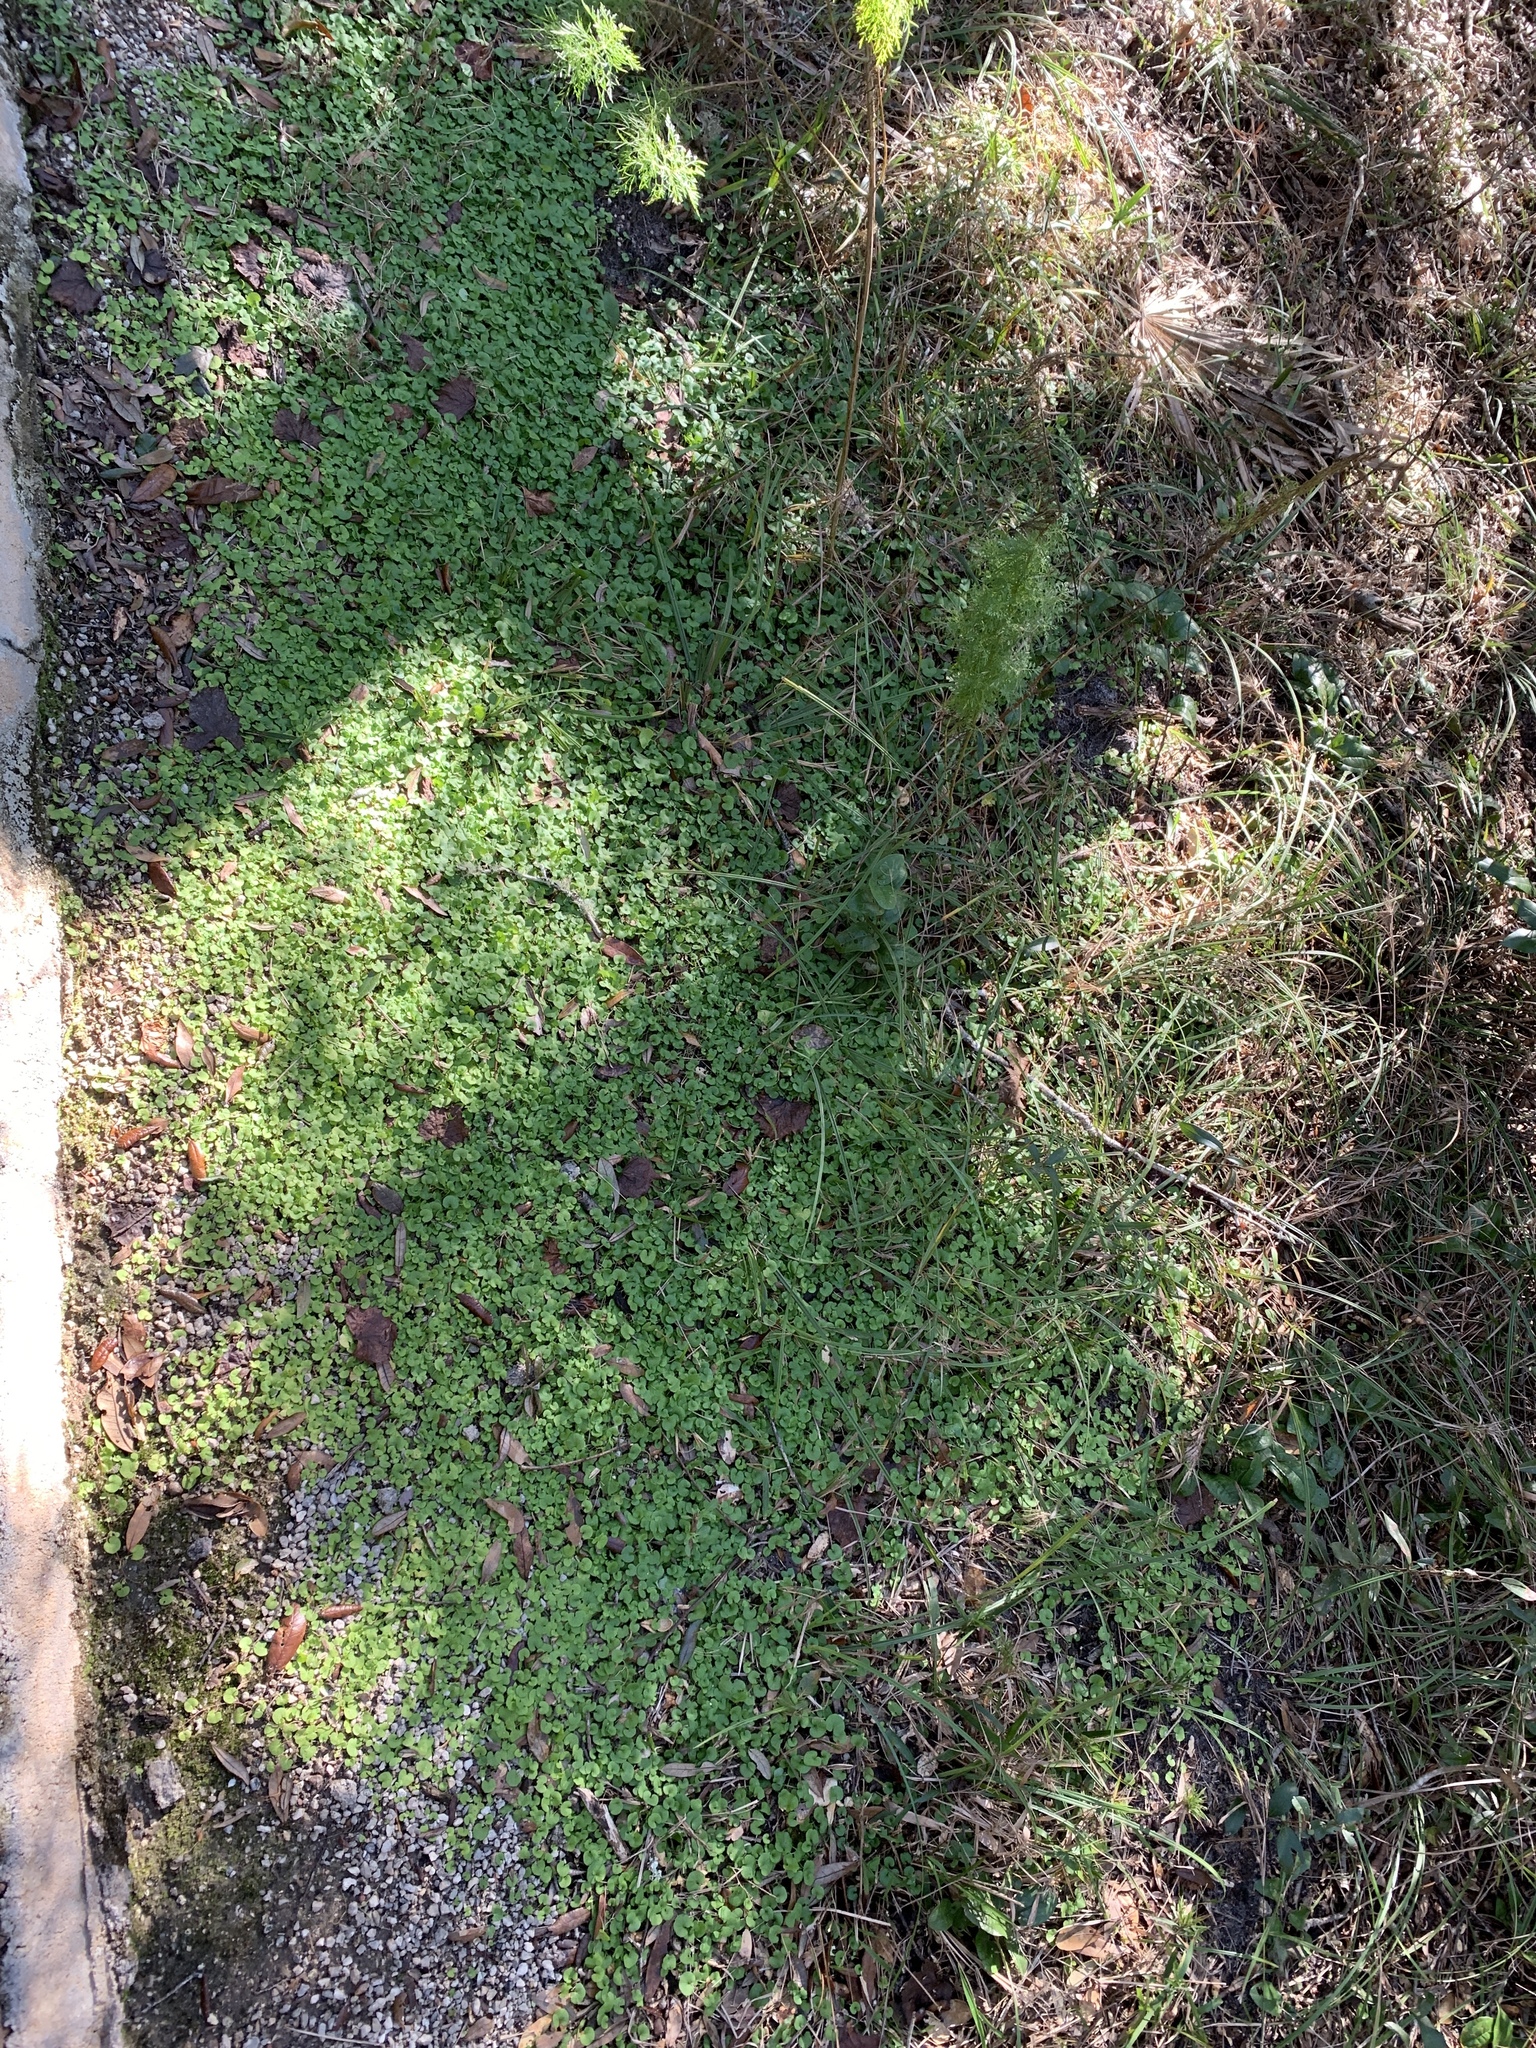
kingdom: Plantae
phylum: Tracheophyta
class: Magnoliopsida
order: Solanales
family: Convolvulaceae
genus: Dichondra
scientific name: Dichondra carolinensis
